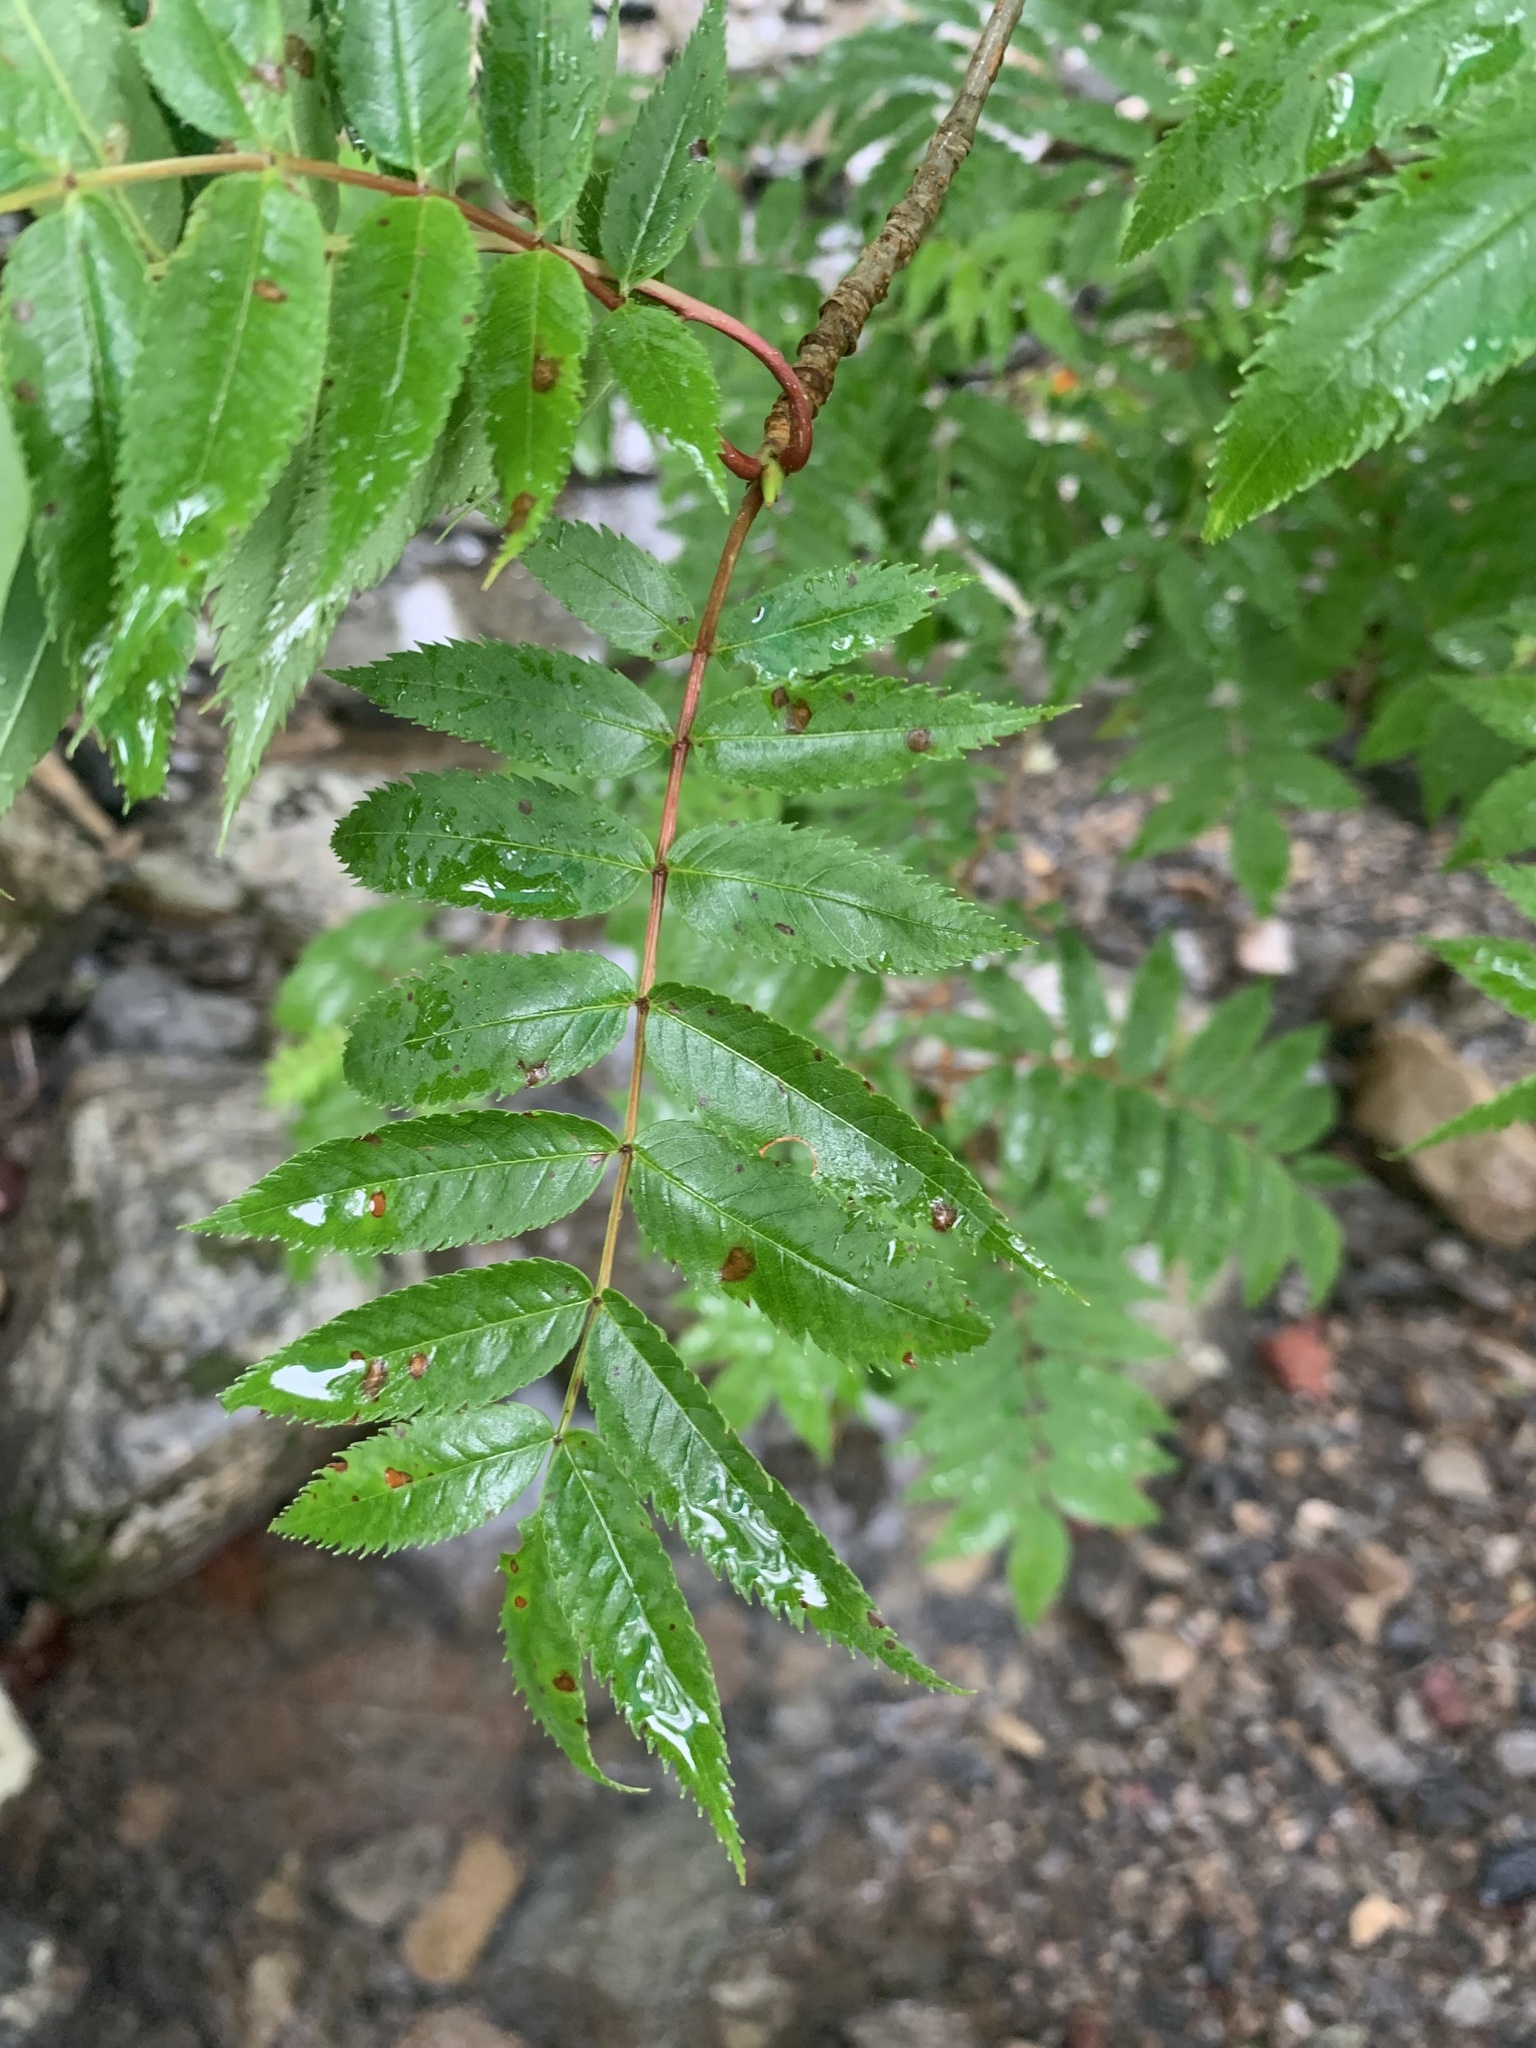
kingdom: Plantae
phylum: Tracheophyta
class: Magnoliopsida
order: Rosales
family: Rosaceae
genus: Sorbus
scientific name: Sorbus commixta
